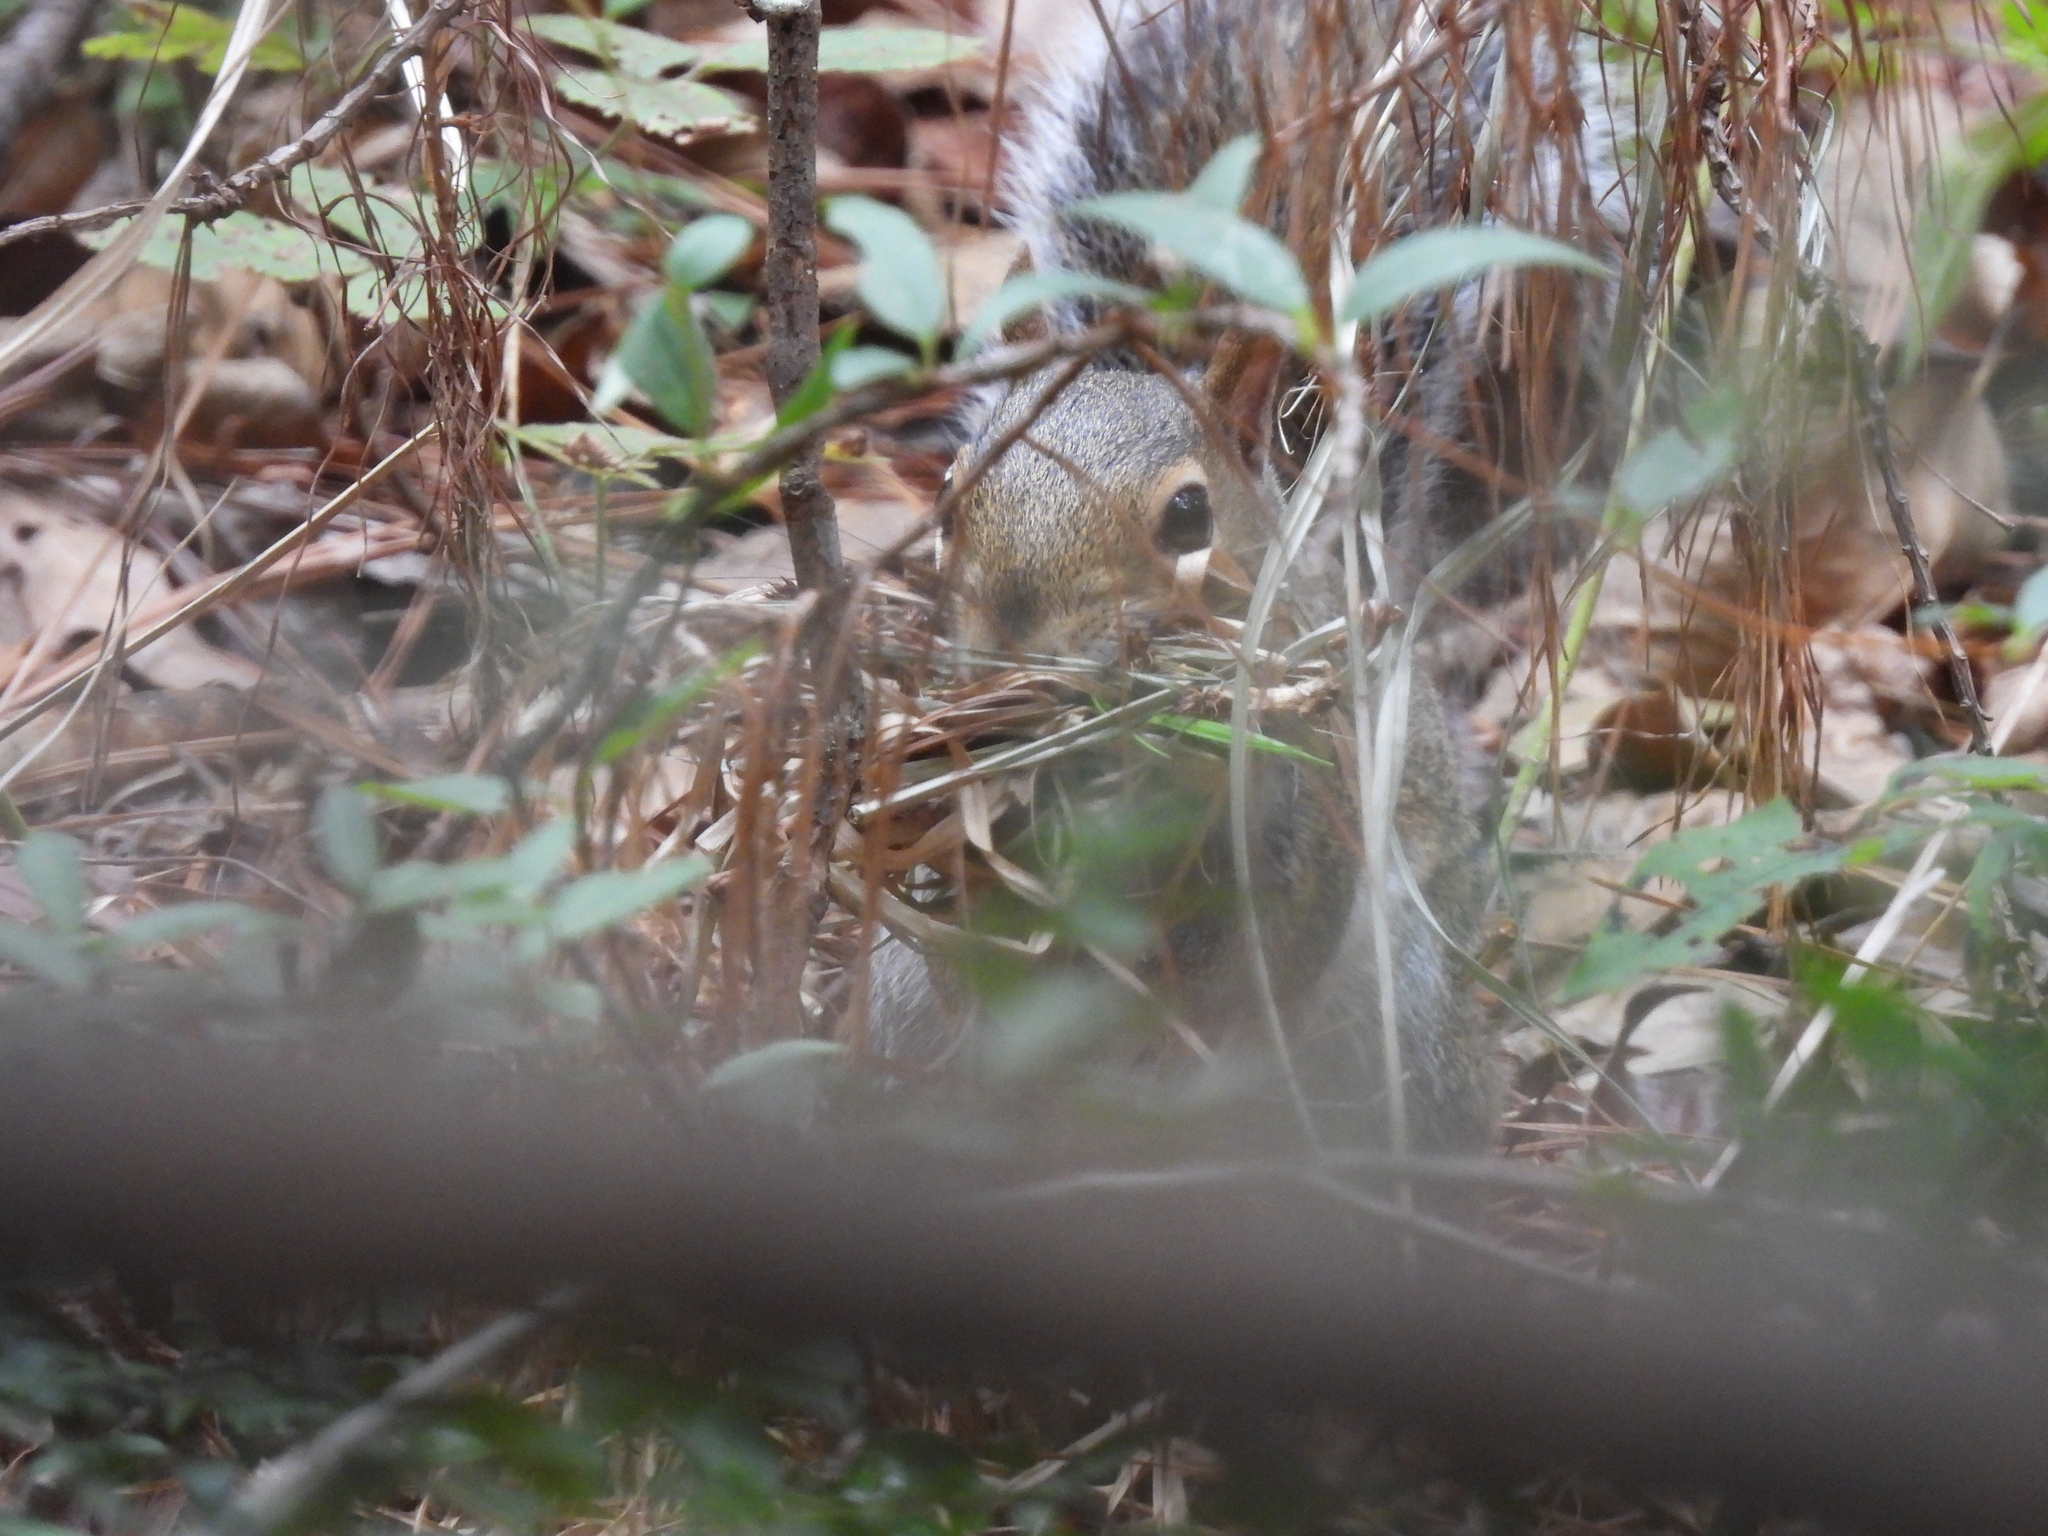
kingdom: Animalia
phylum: Chordata
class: Mammalia
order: Rodentia
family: Sciuridae
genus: Sciurus
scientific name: Sciurus carolinensis
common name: Eastern gray squirrel
